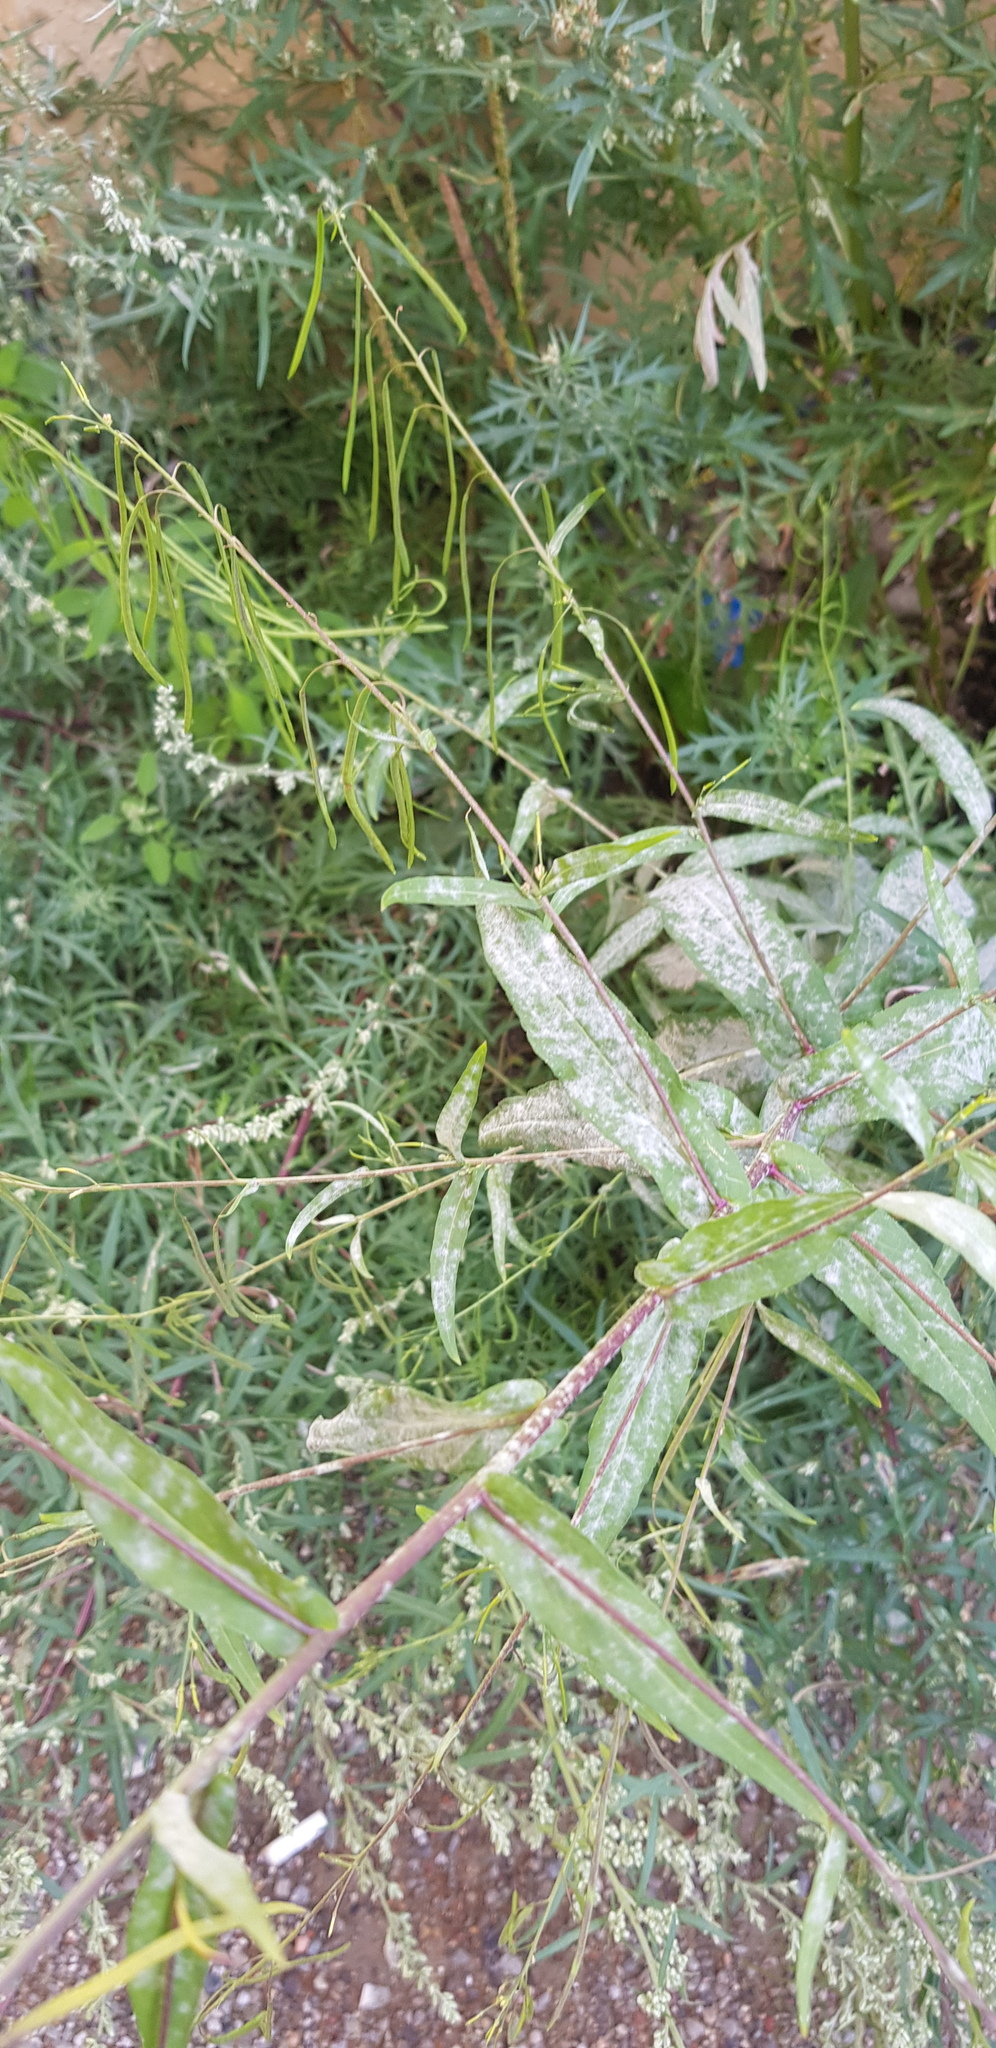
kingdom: Plantae
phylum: Tracheophyta
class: Magnoliopsida
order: Brassicales
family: Brassicaceae
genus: Catolobus
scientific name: Catolobus pendulus
